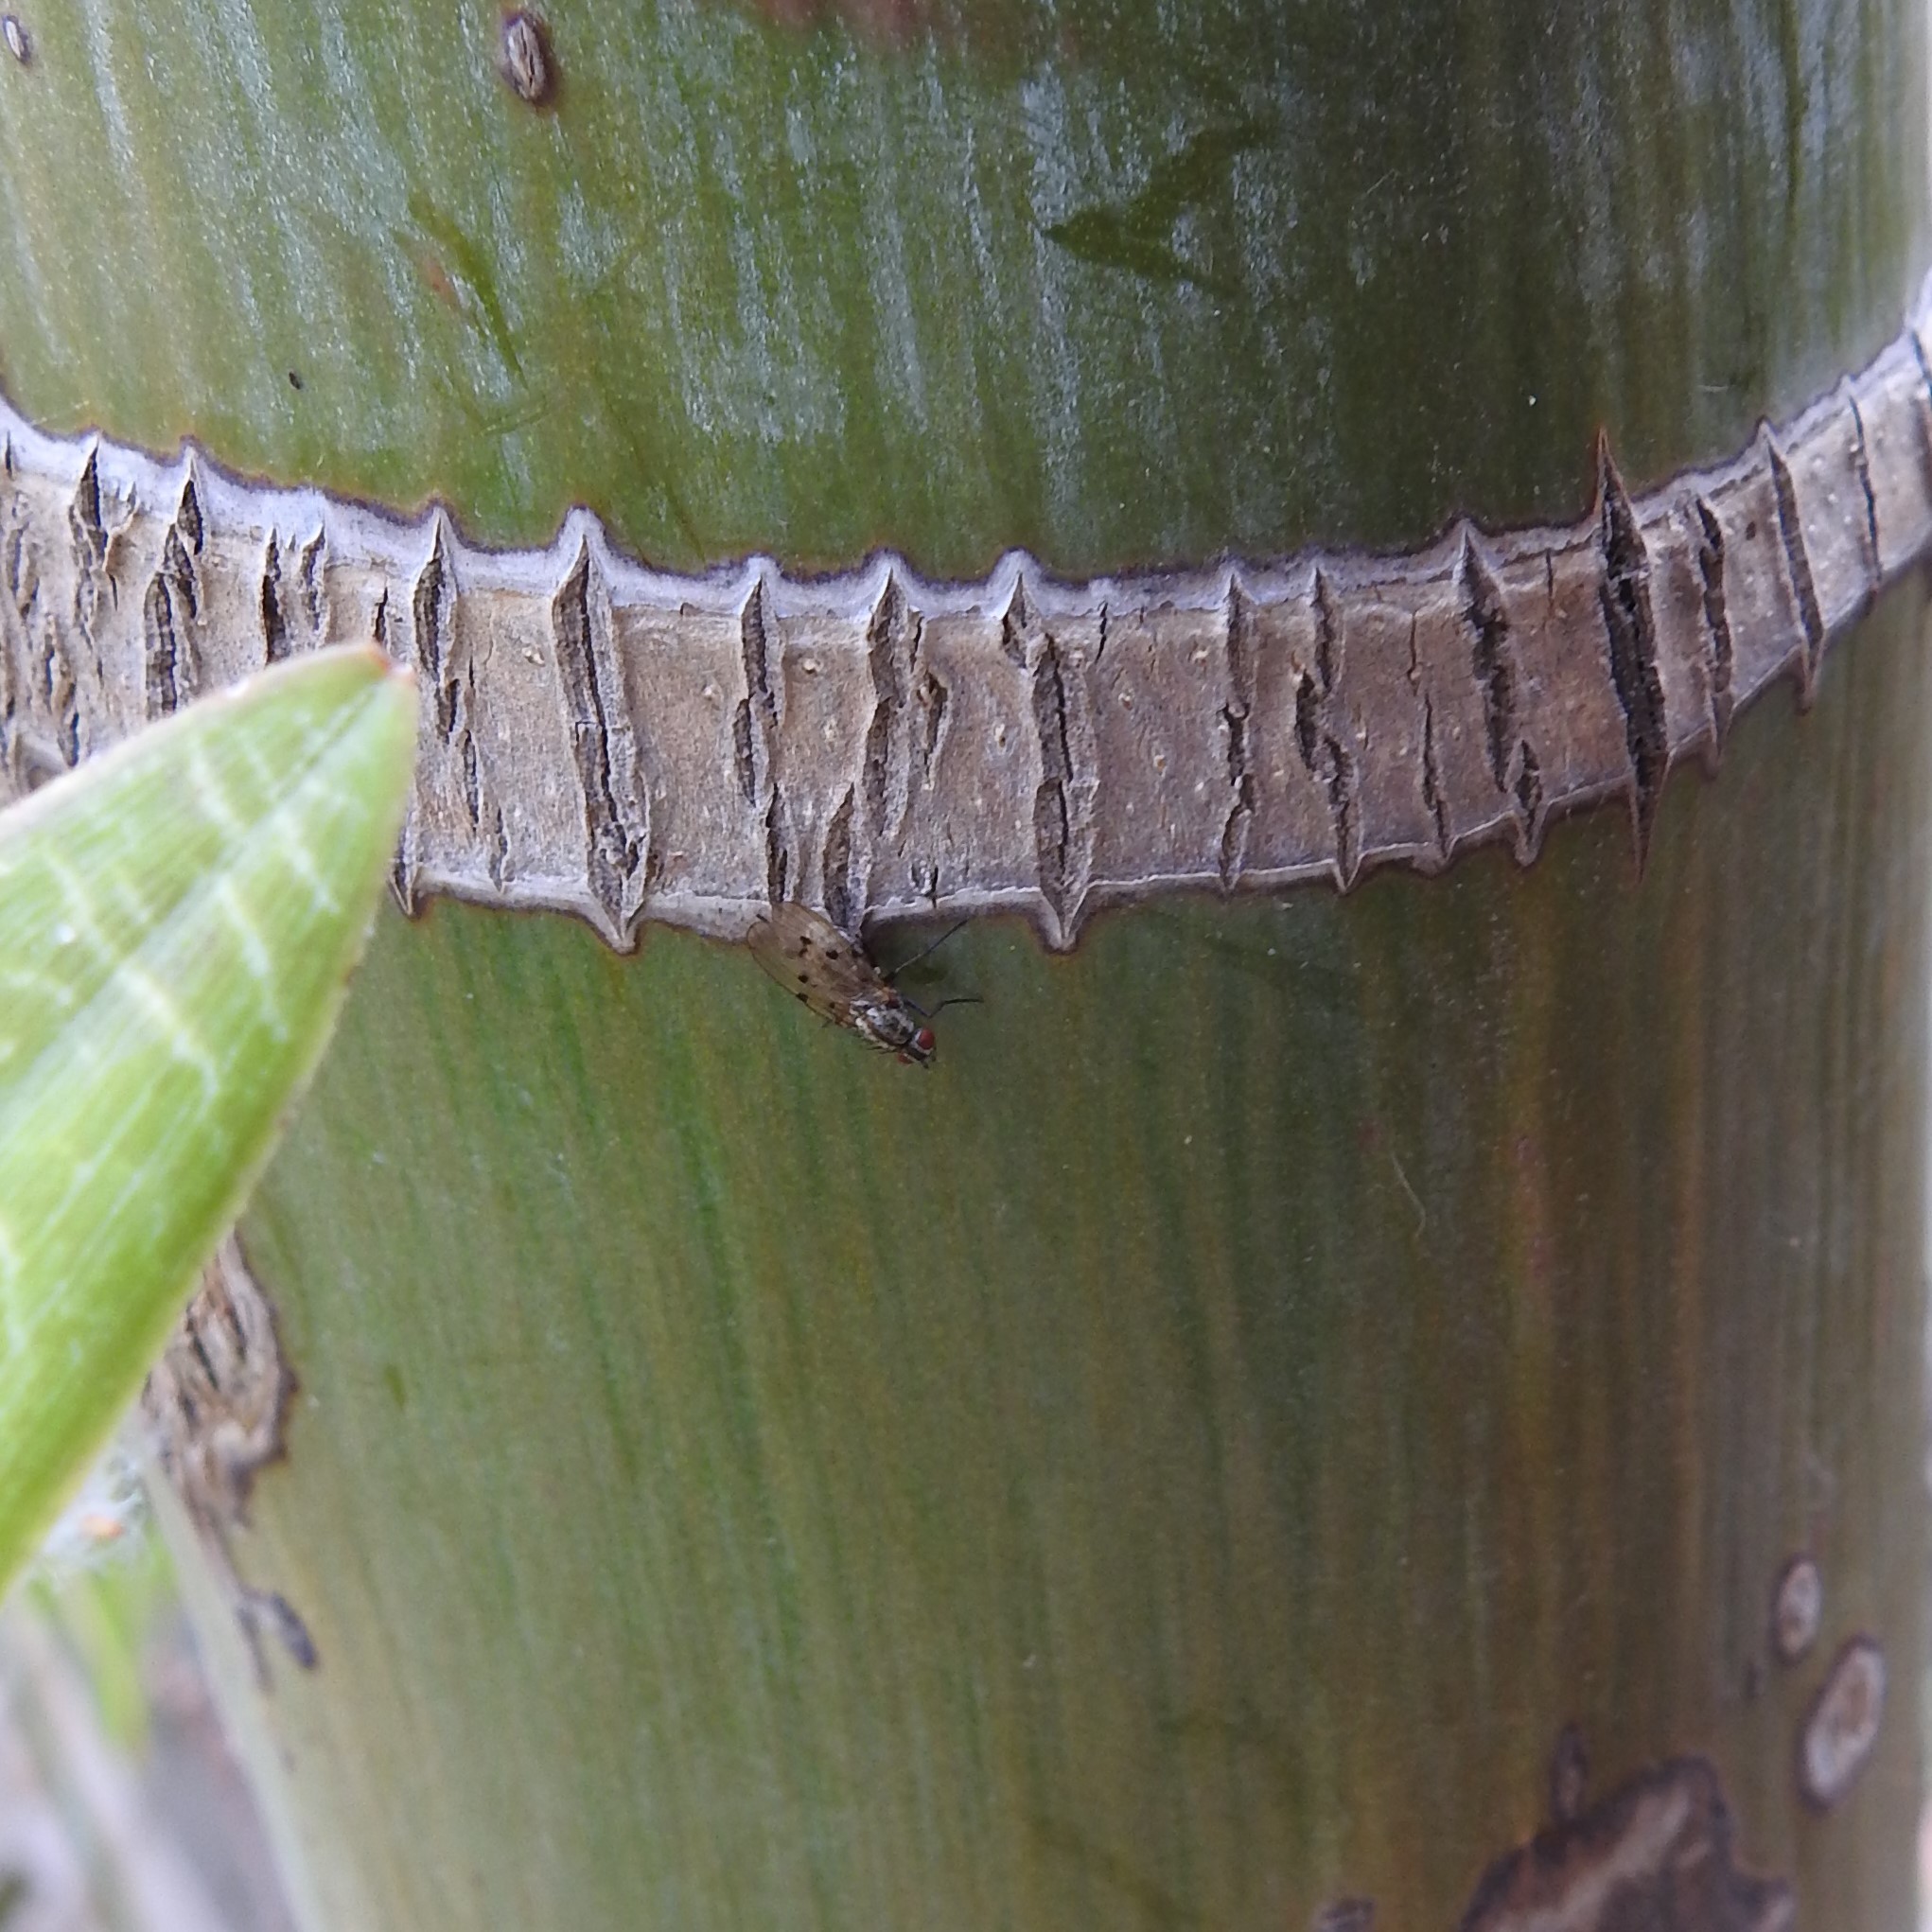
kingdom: Animalia
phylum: Arthropoda
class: Insecta
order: Diptera
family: Anthomyiidae
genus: Anthomyia
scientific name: Anthomyia punctipennis
